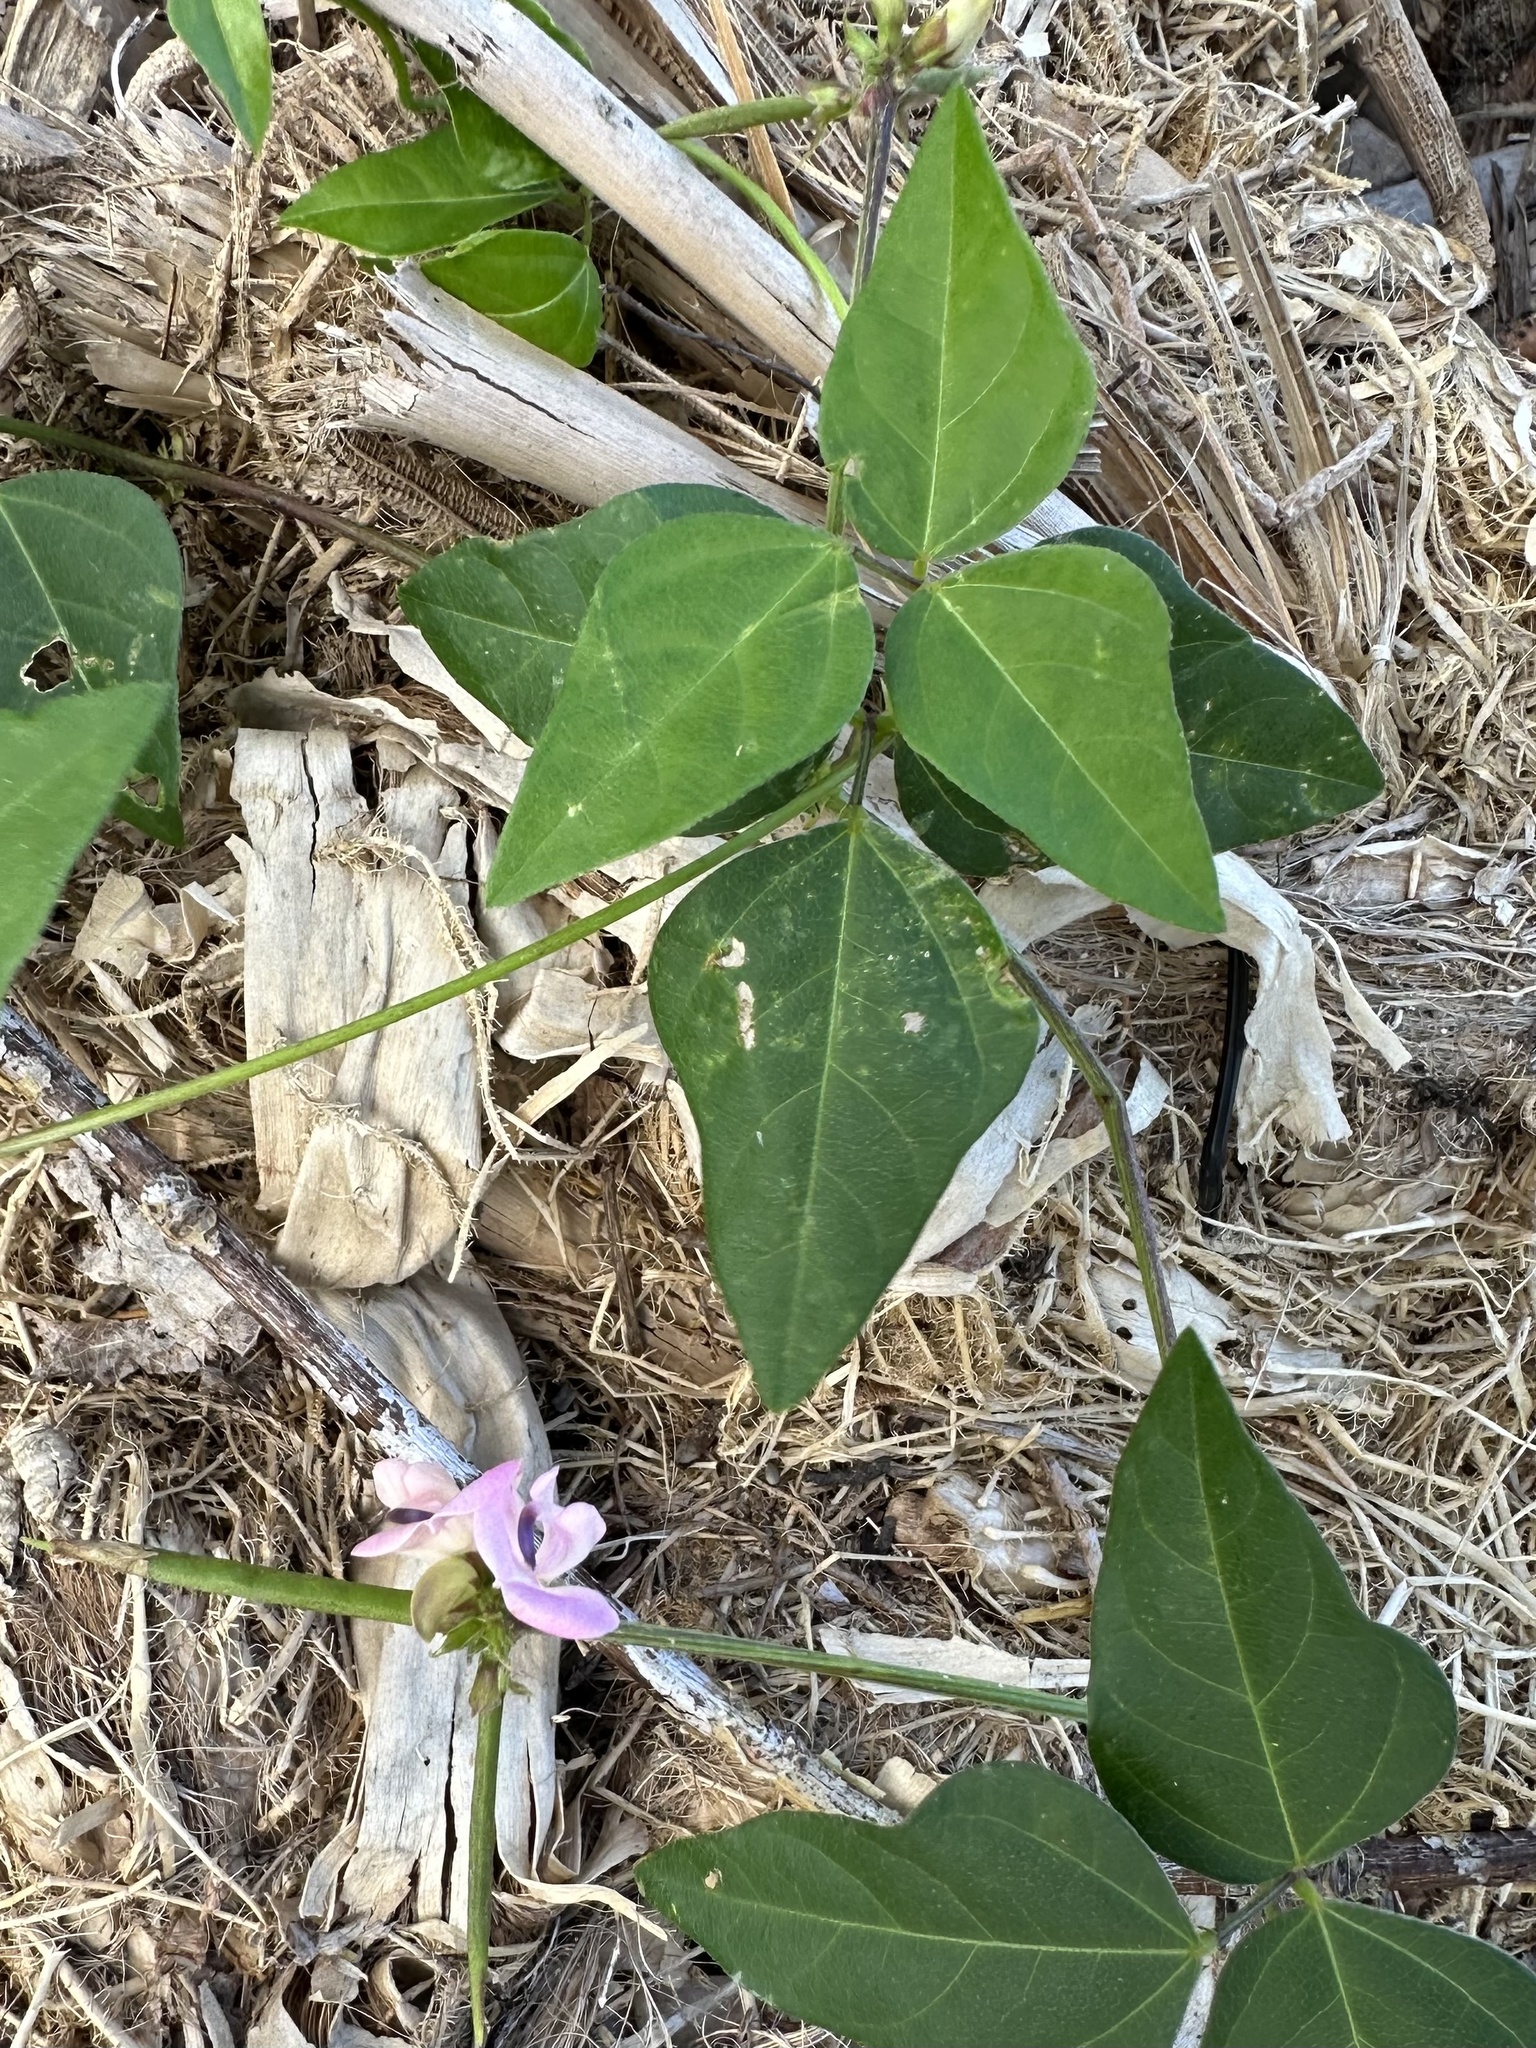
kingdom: Plantae
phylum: Tracheophyta
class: Magnoliopsida
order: Fabales
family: Fabaceae
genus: Strophostyles
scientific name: Strophostyles helvola
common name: Trailing wild bean
